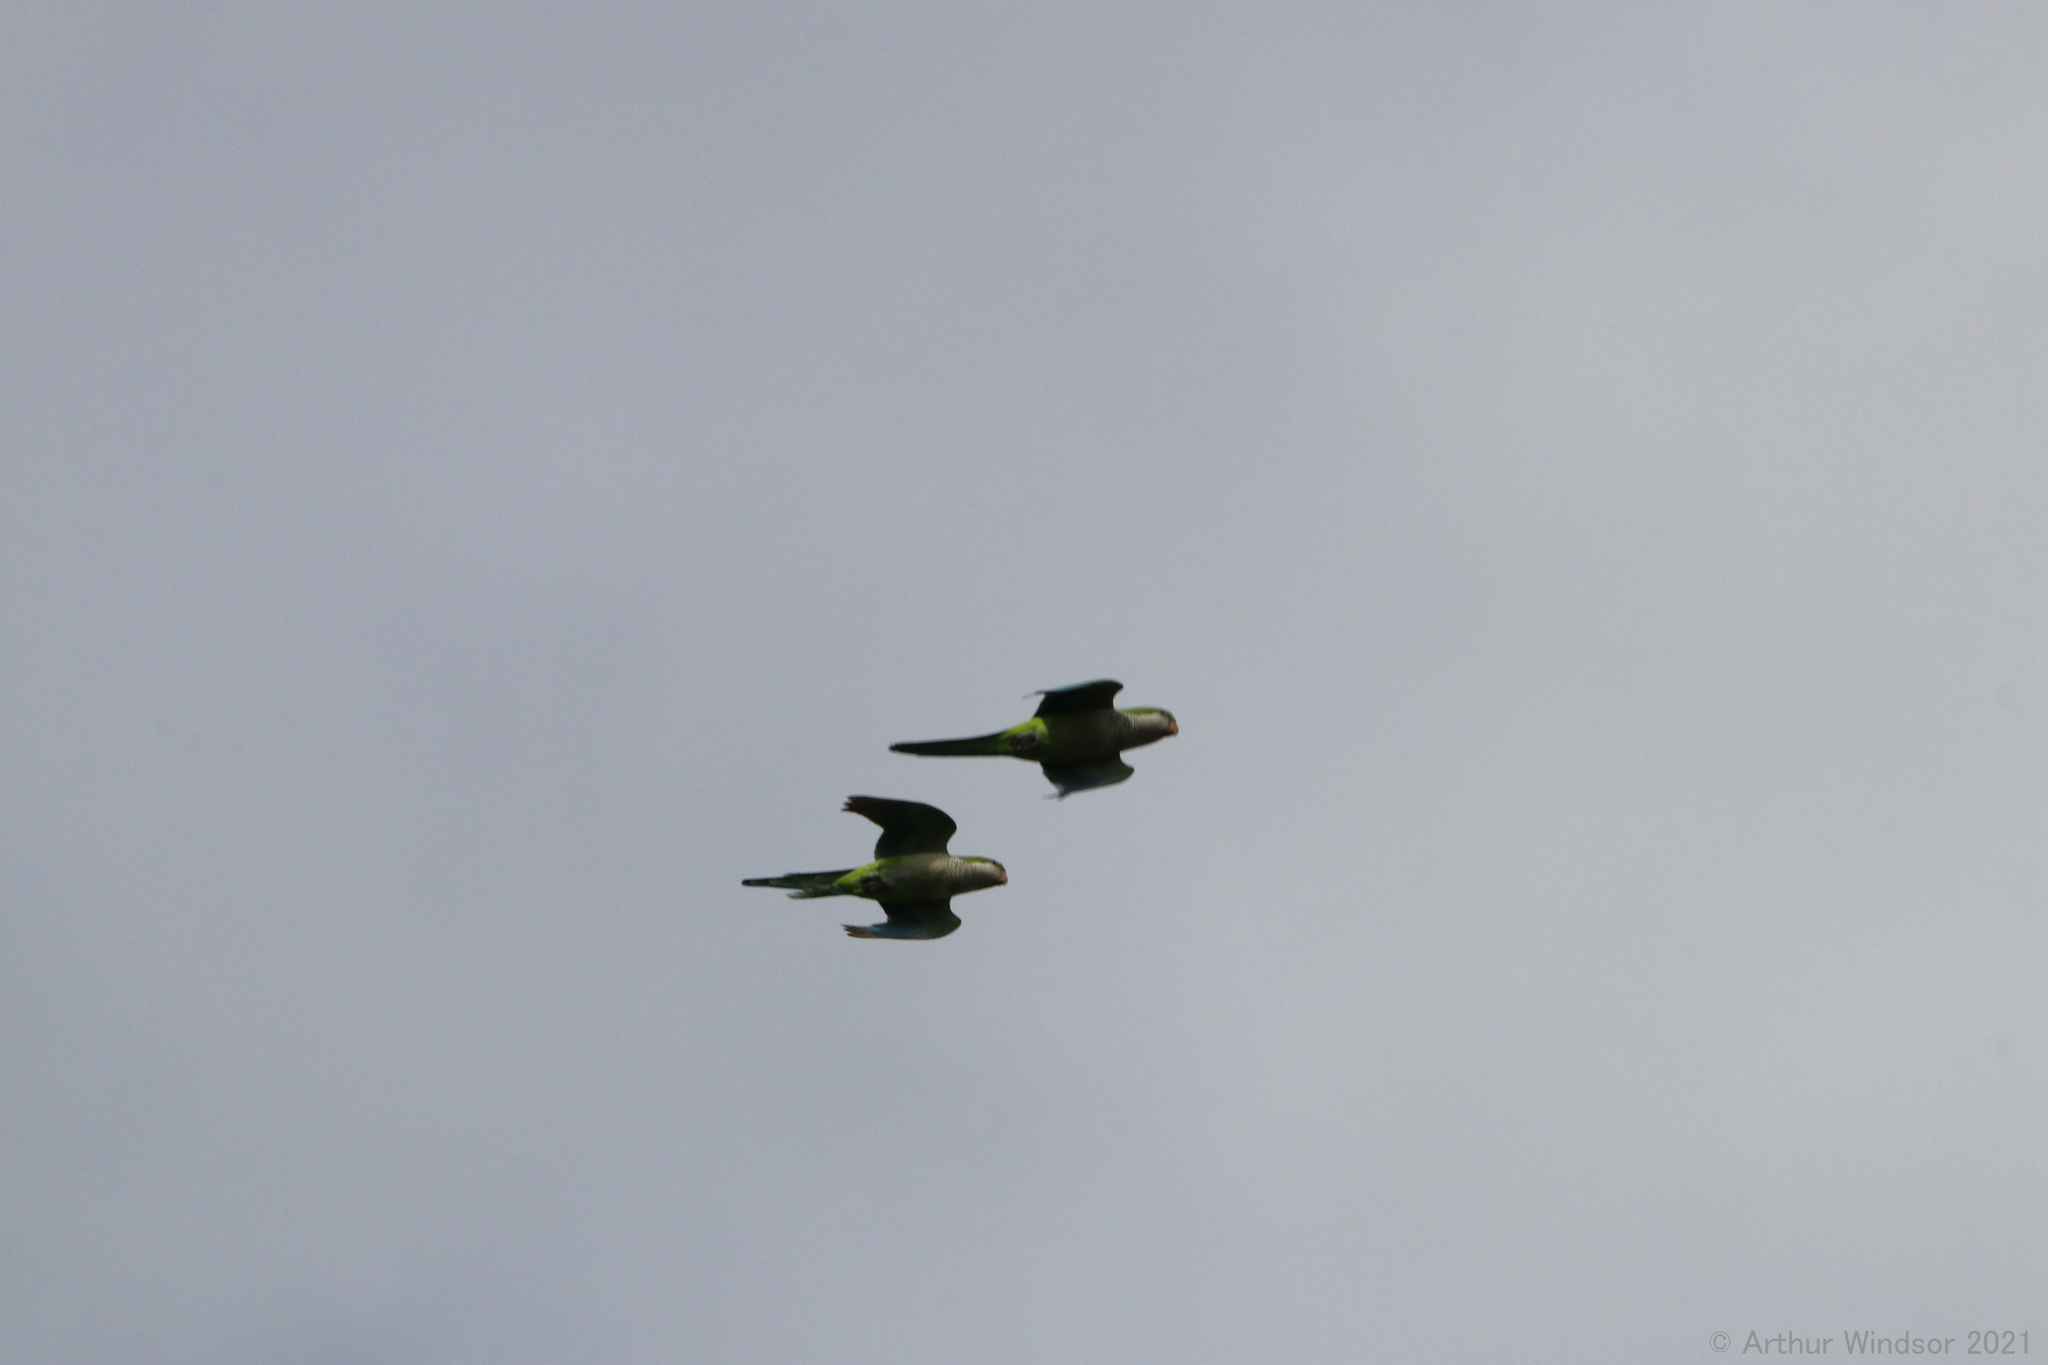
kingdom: Animalia
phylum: Chordata
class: Aves
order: Psittaciformes
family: Psittacidae
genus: Myiopsitta
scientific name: Myiopsitta monachus
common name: Monk parakeet
